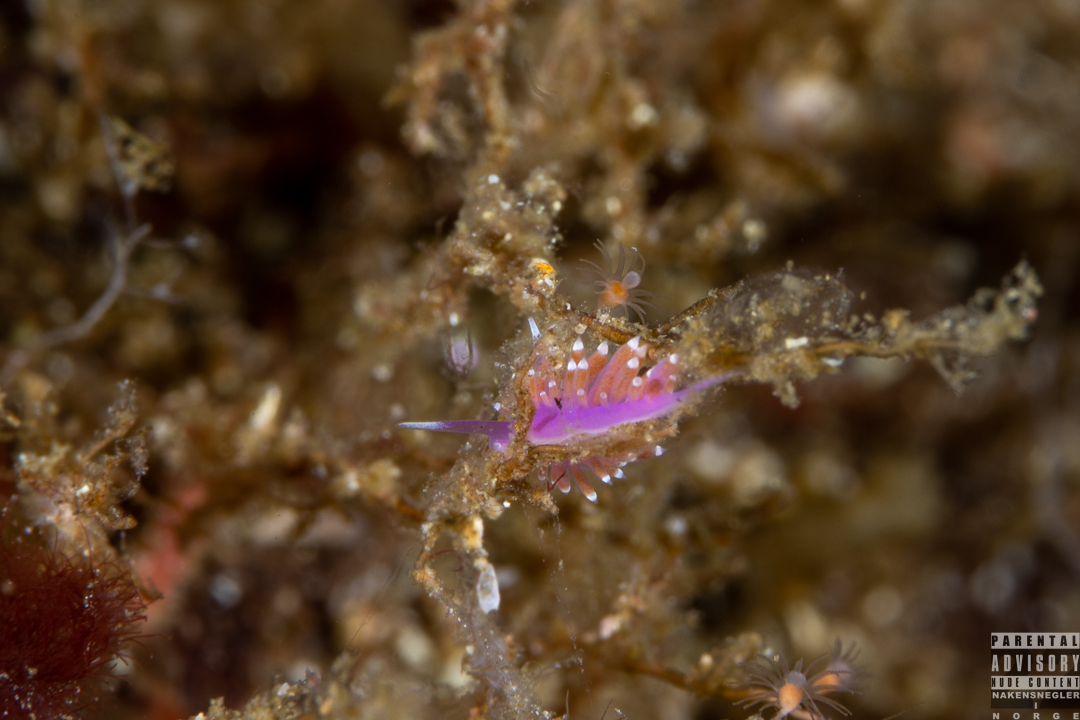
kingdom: Animalia
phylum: Mollusca
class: Gastropoda
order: Nudibranchia
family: Flabellinidae
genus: Edmundsella
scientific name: Edmundsella pedata
